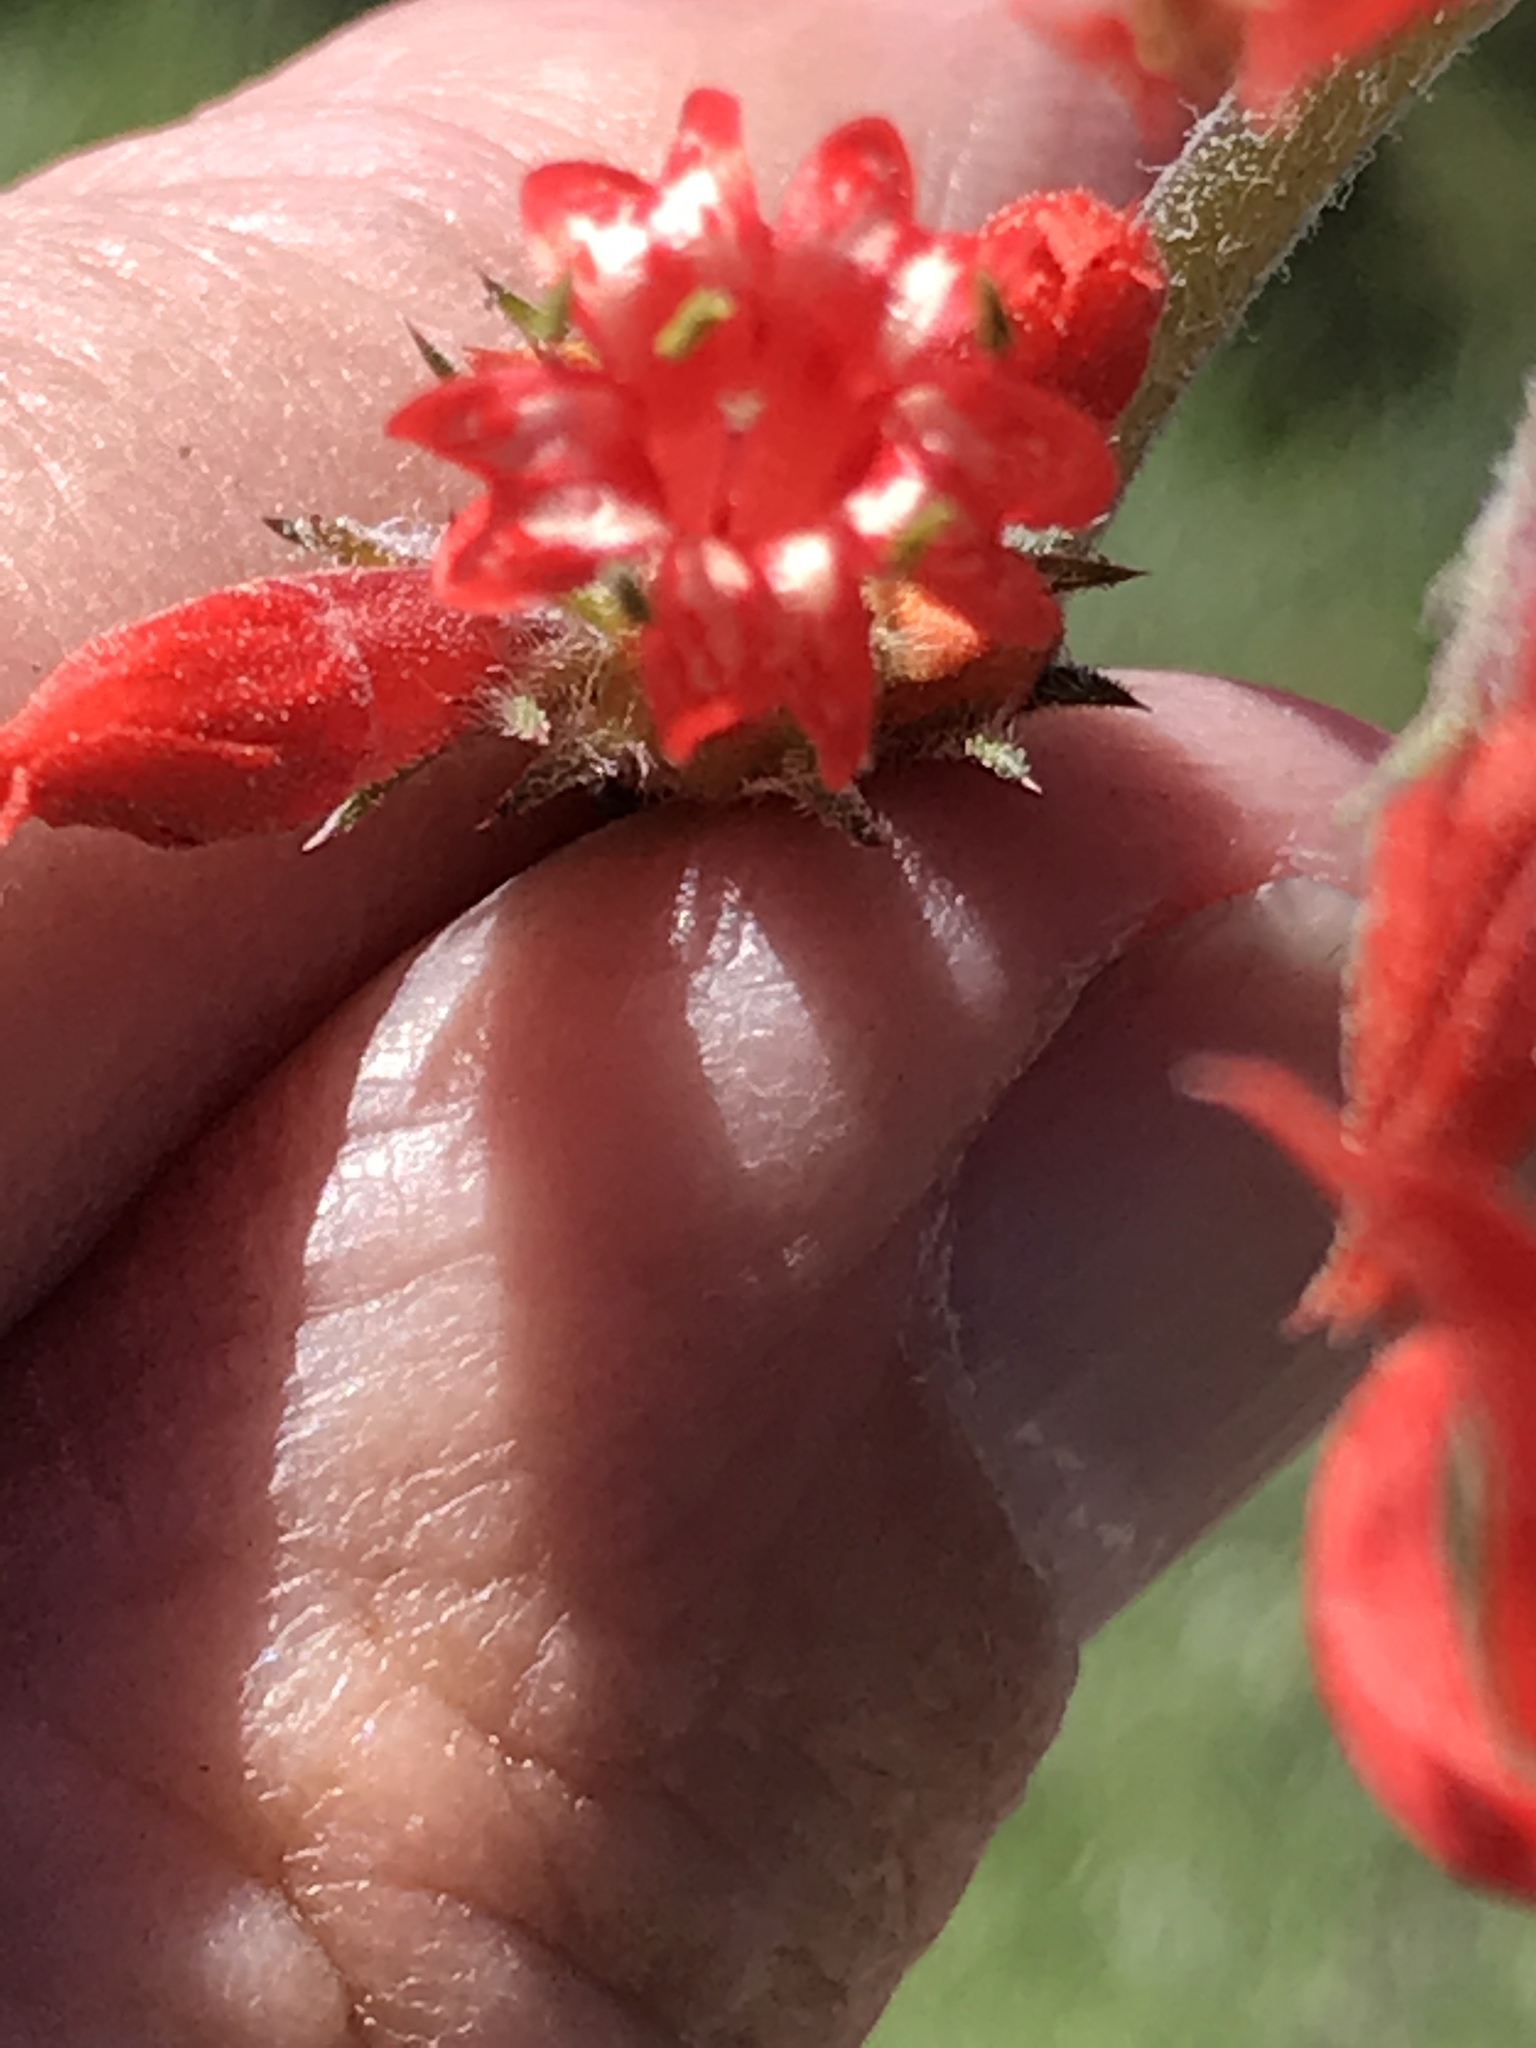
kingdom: Plantae
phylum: Tracheophyta
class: Magnoliopsida
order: Ericales
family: Polemoniaceae
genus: Ipomopsis
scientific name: Ipomopsis aggregata
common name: Scarlet gilia
